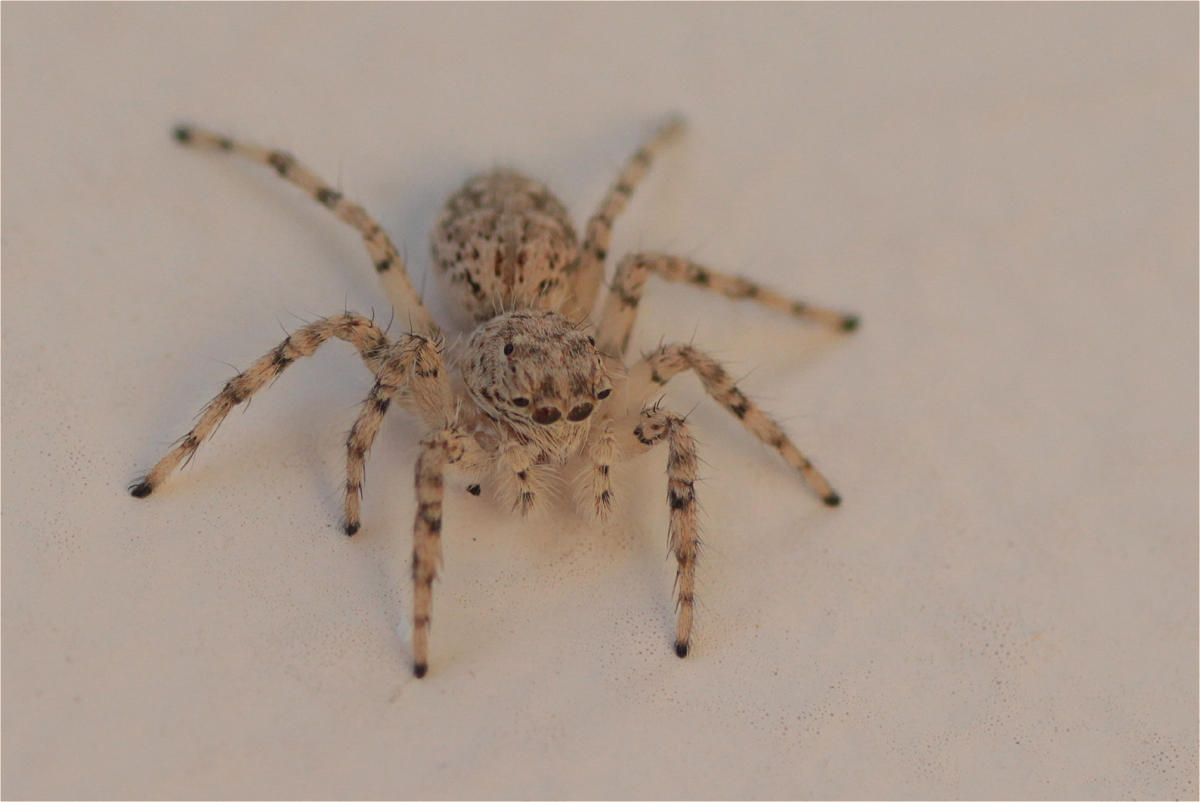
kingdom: Animalia
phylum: Arthropoda
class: Arachnida
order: Araneae
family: Salticidae
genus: Plexippoides
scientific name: Plexippoides flavescens
